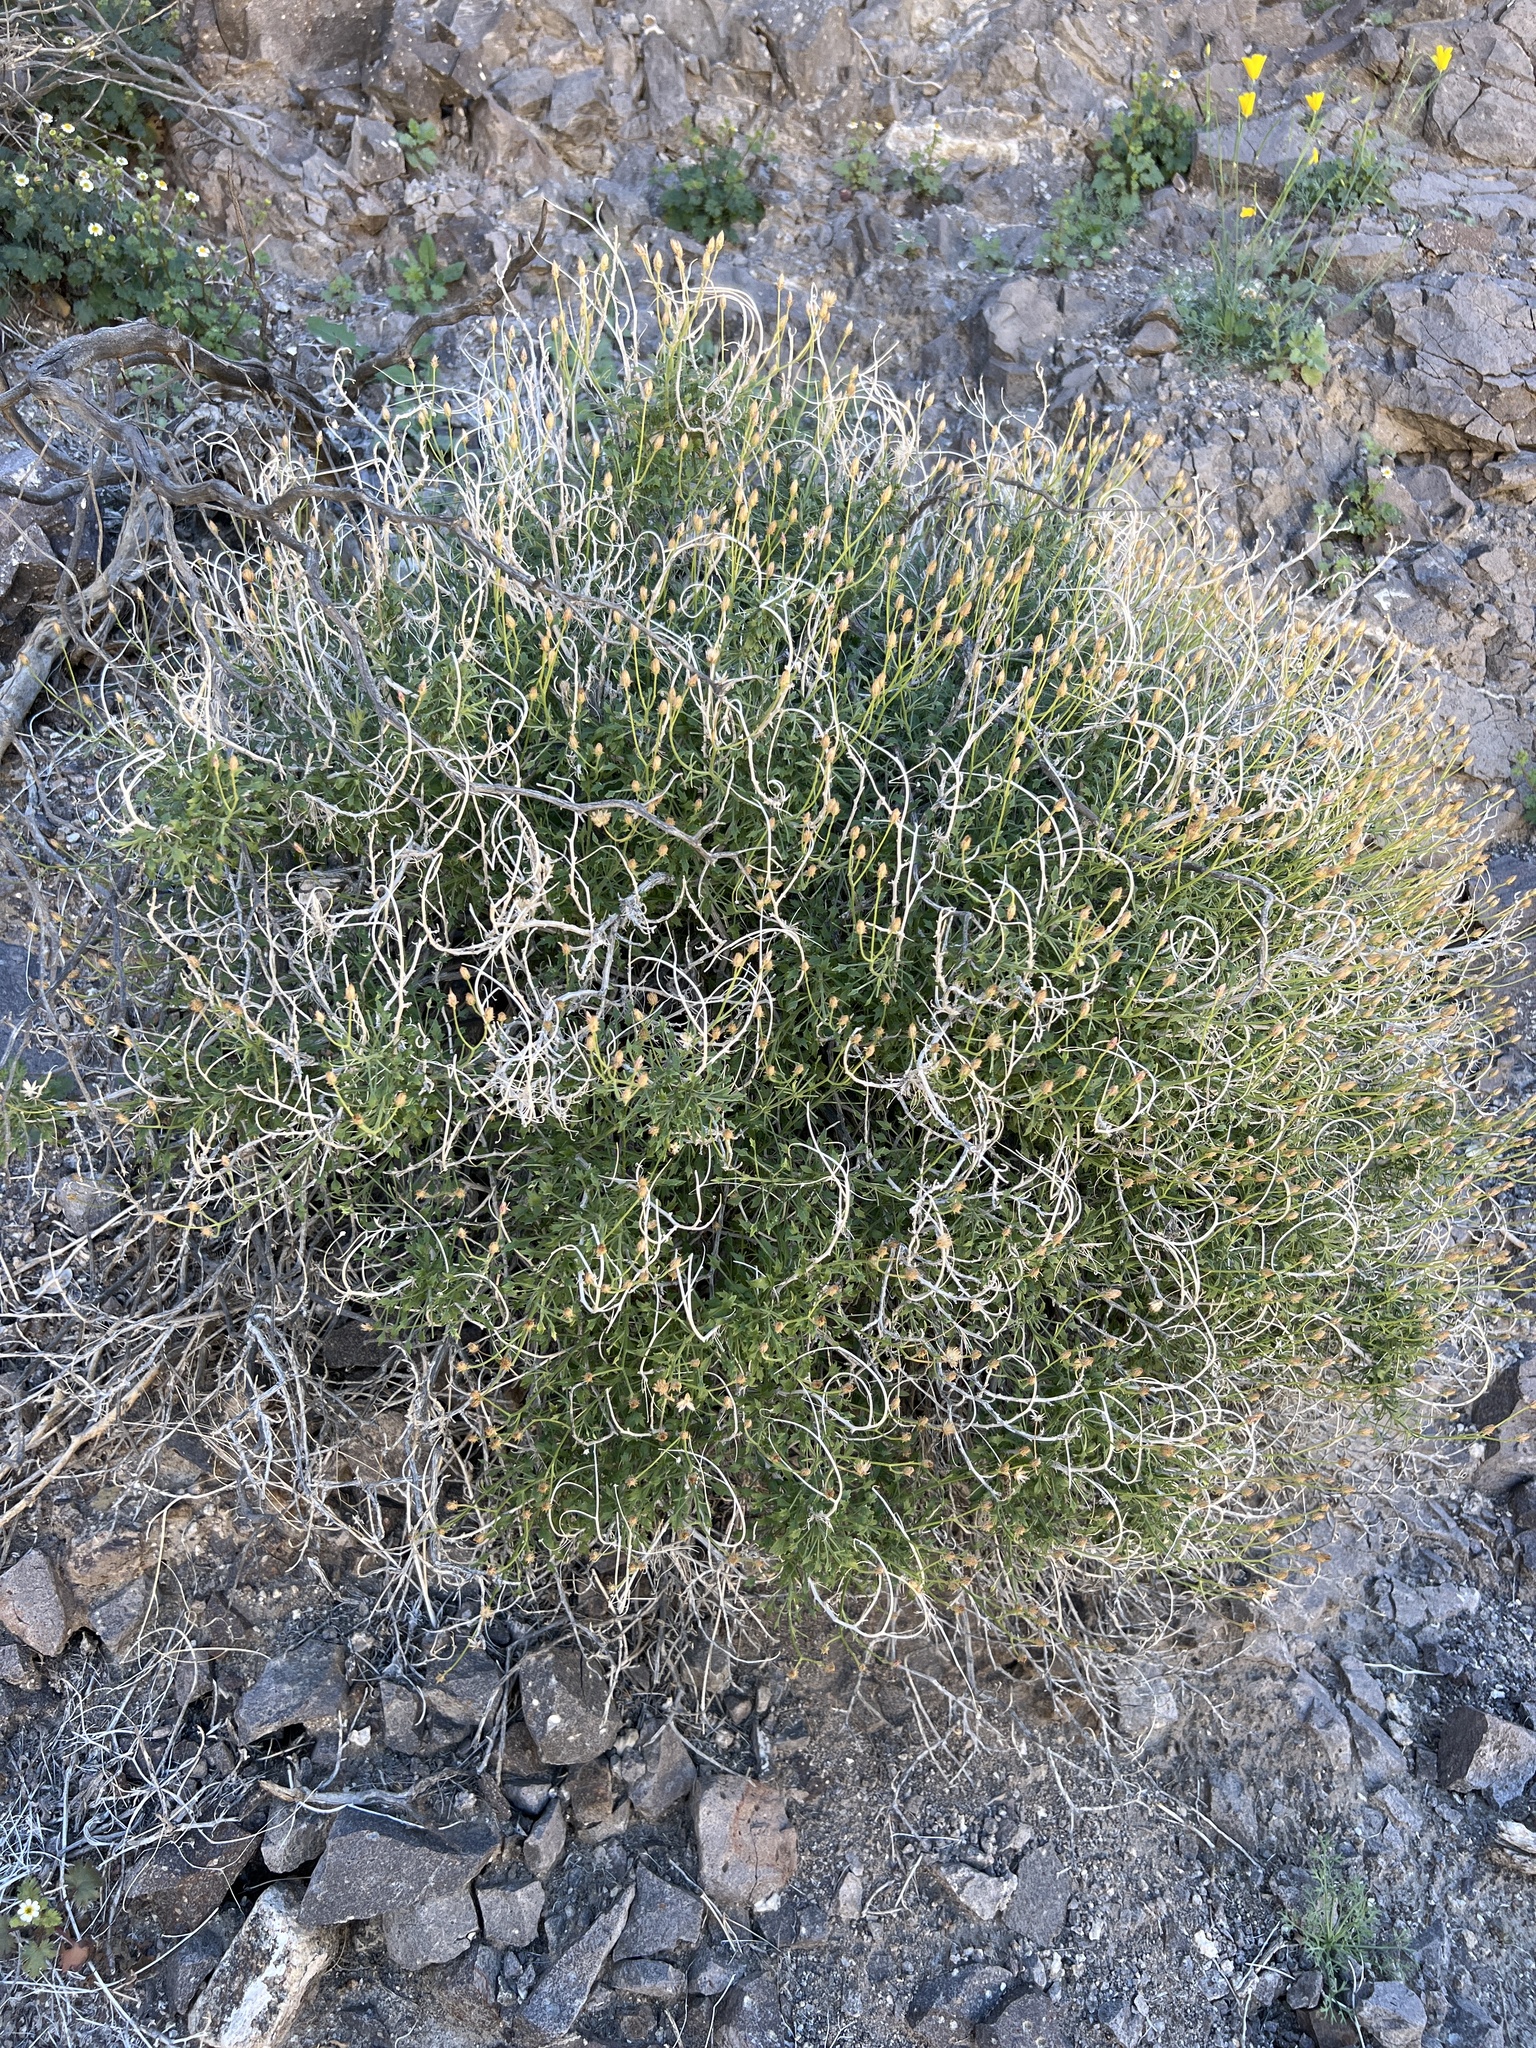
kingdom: Plantae
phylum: Tracheophyta
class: Magnoliopsida
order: Asterales
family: Asteraceae
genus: Pleurocoronis
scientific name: Pleurocoronis pluriseta
